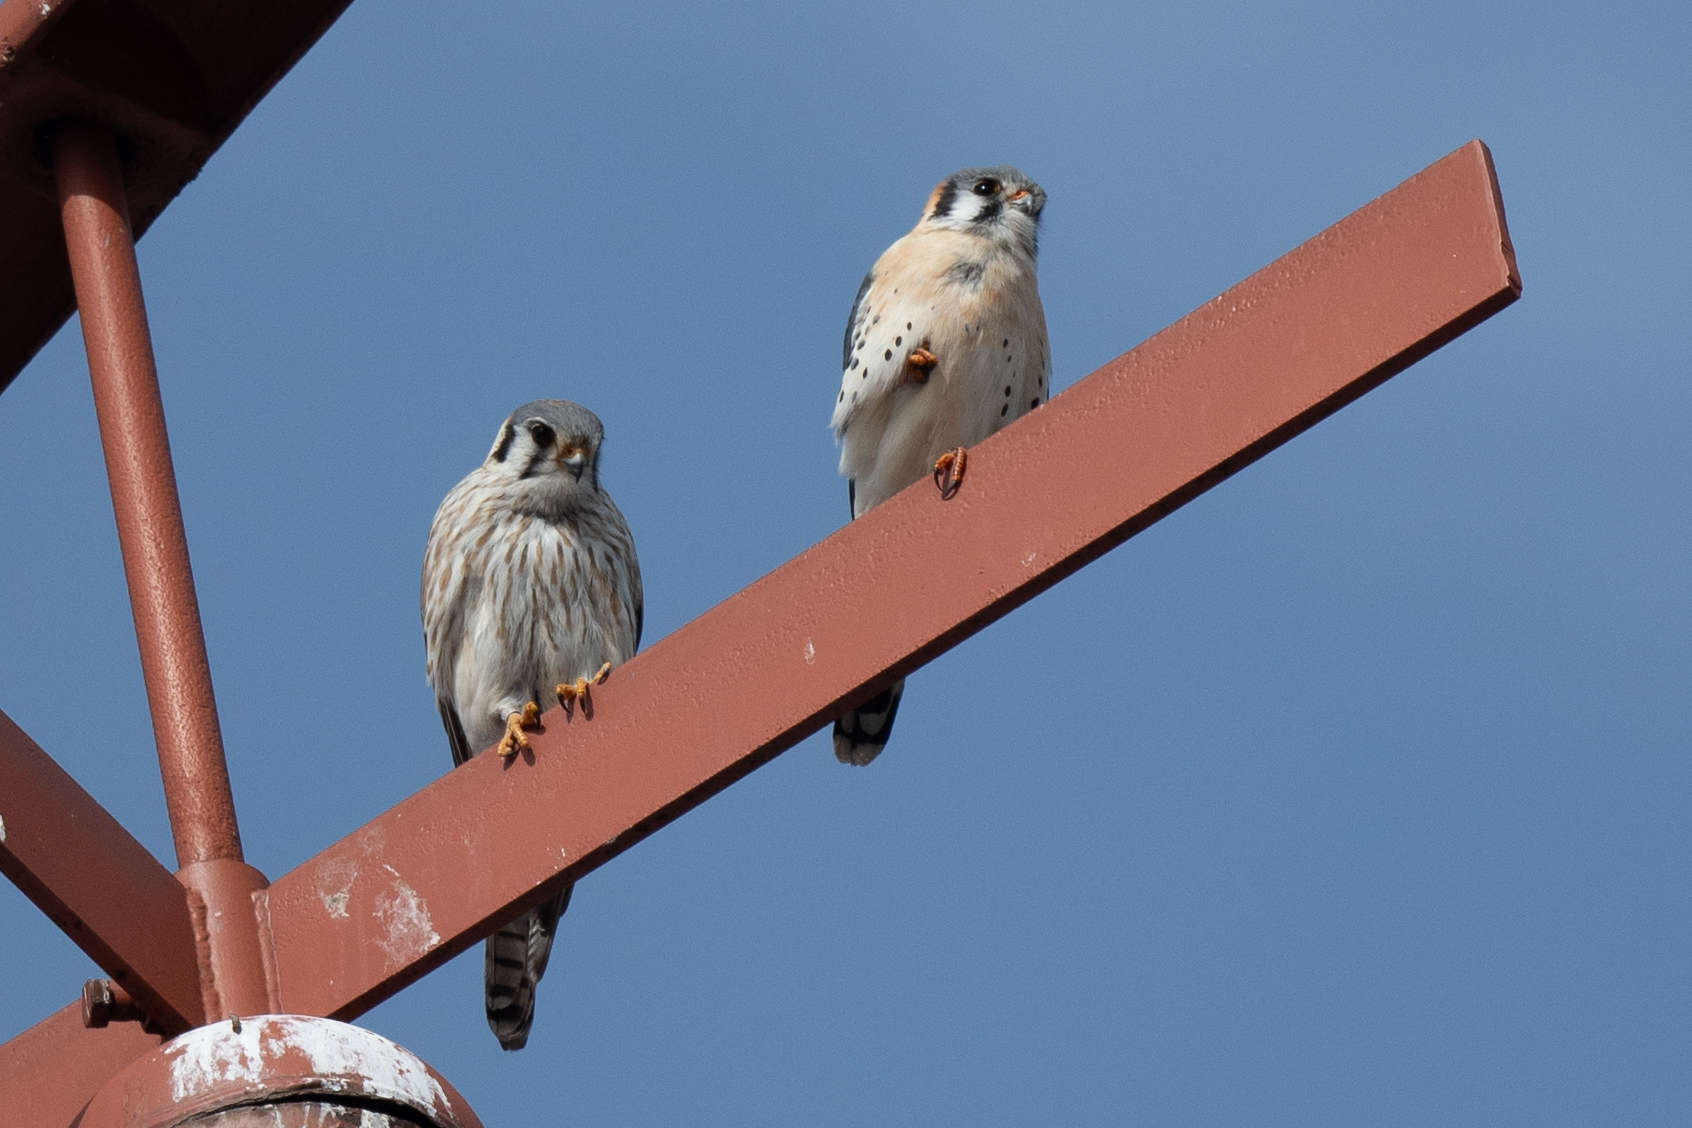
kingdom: Animalia
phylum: Chordata
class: Aves
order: Falconiformes
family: Falconidae
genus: Falco
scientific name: Falco sparverius
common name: American kestrel
